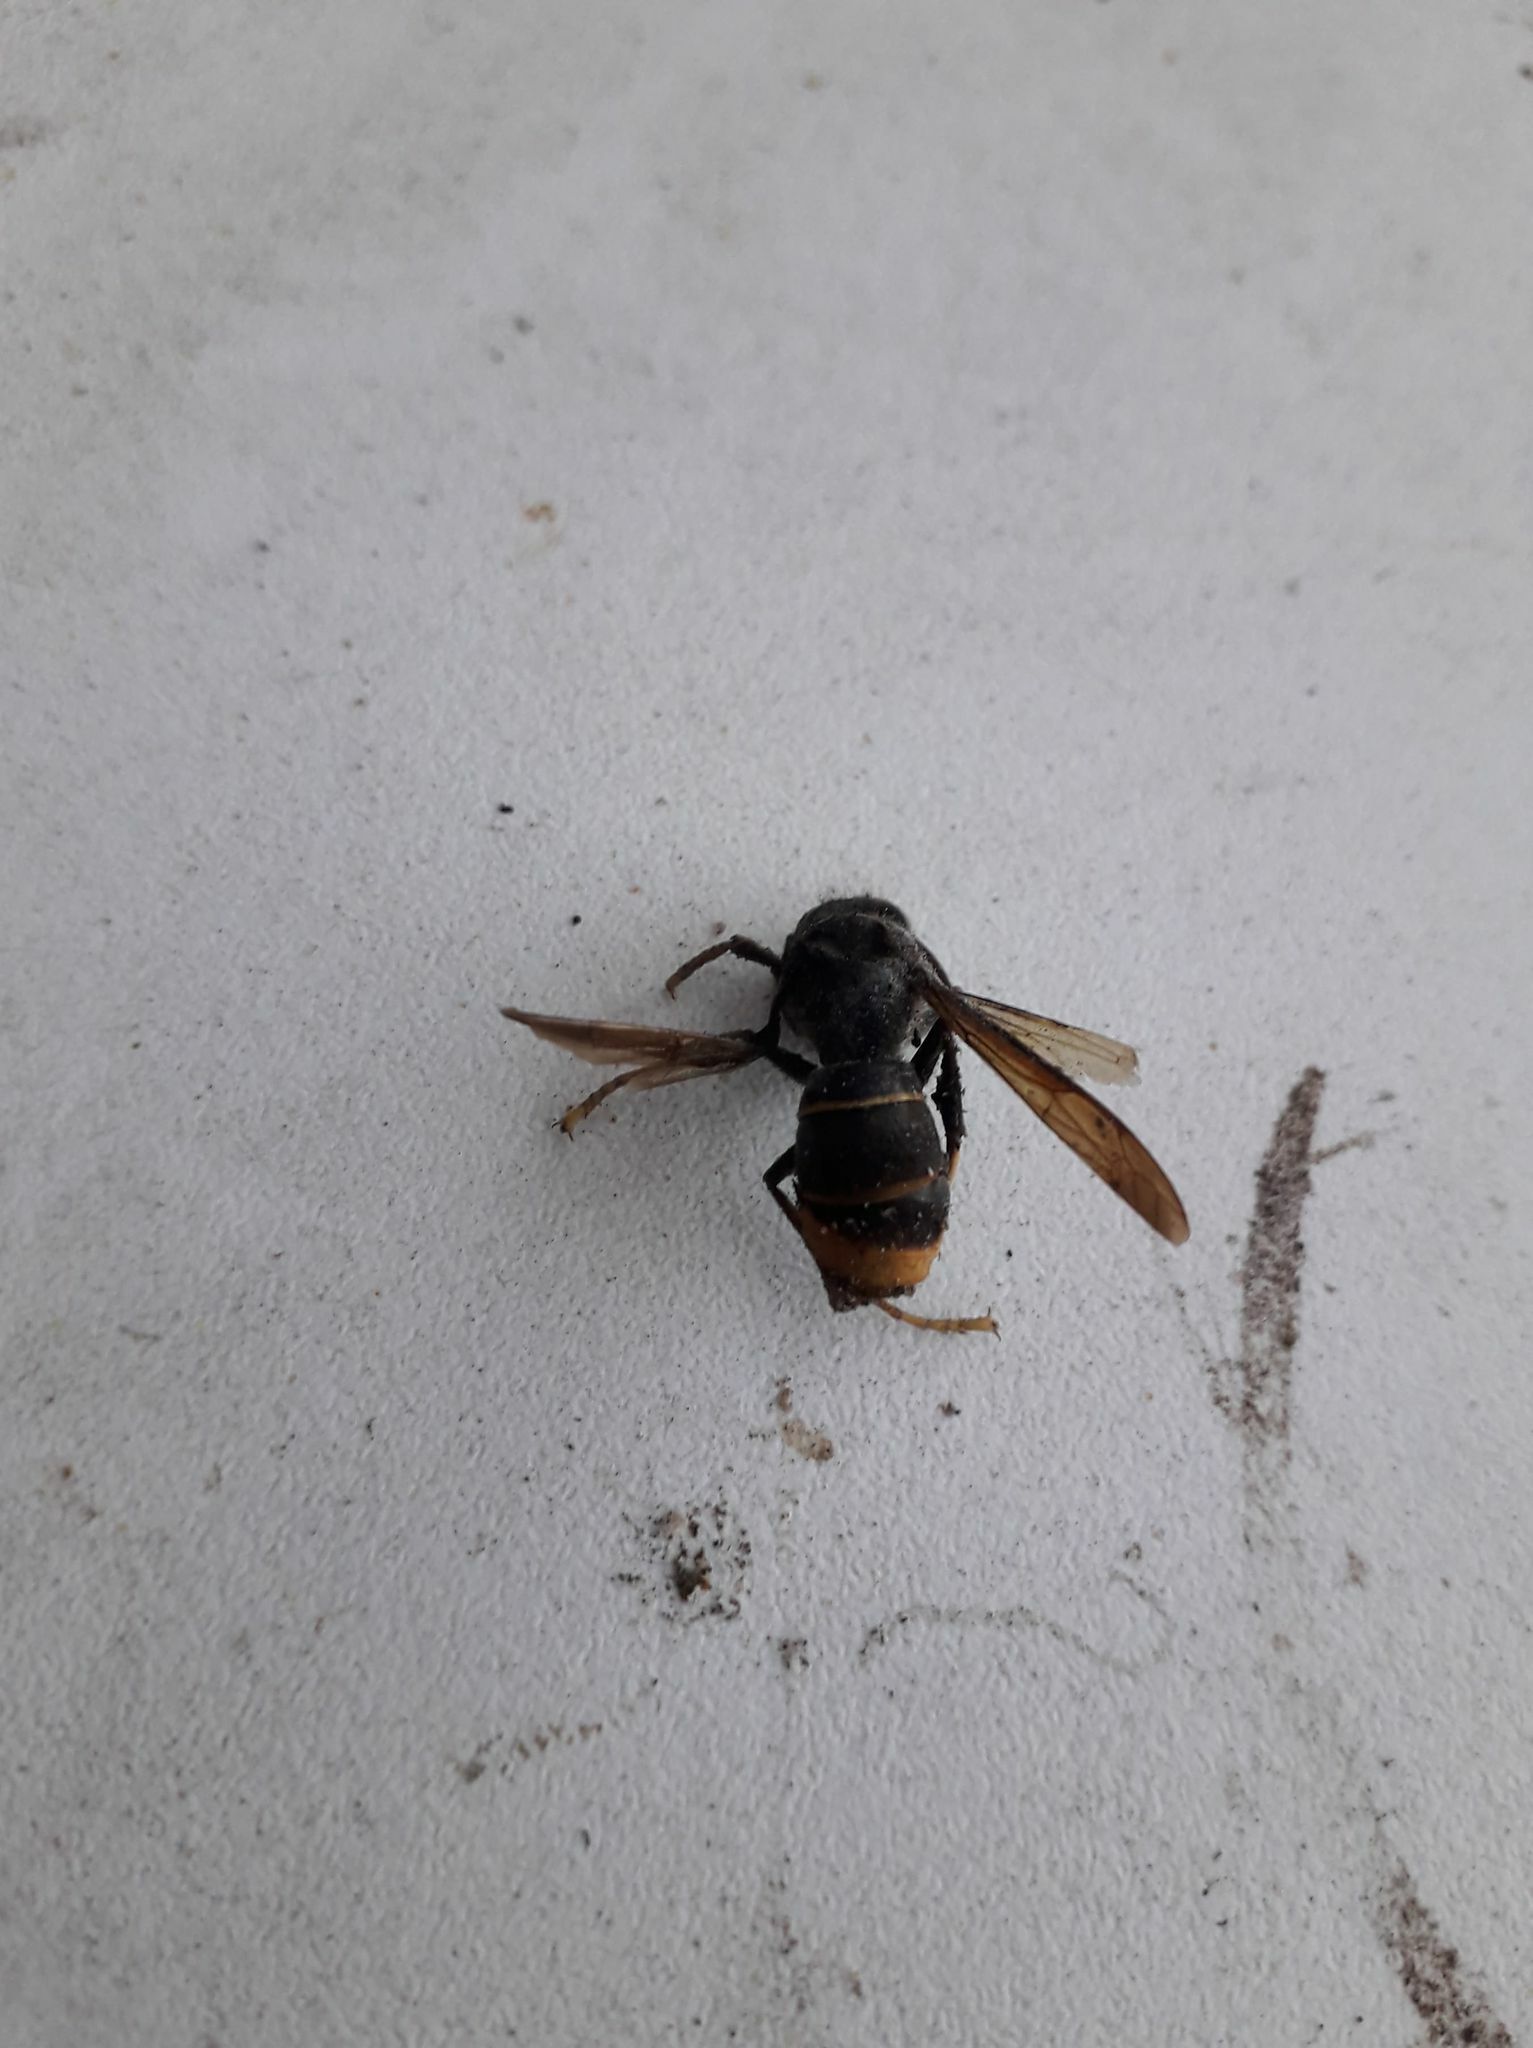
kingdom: Animalia
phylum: Arthropoda
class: Insecta
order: Hymenoptera
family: Vespidae
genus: Vespa
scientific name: Vespa velutina
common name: Asian hornet
